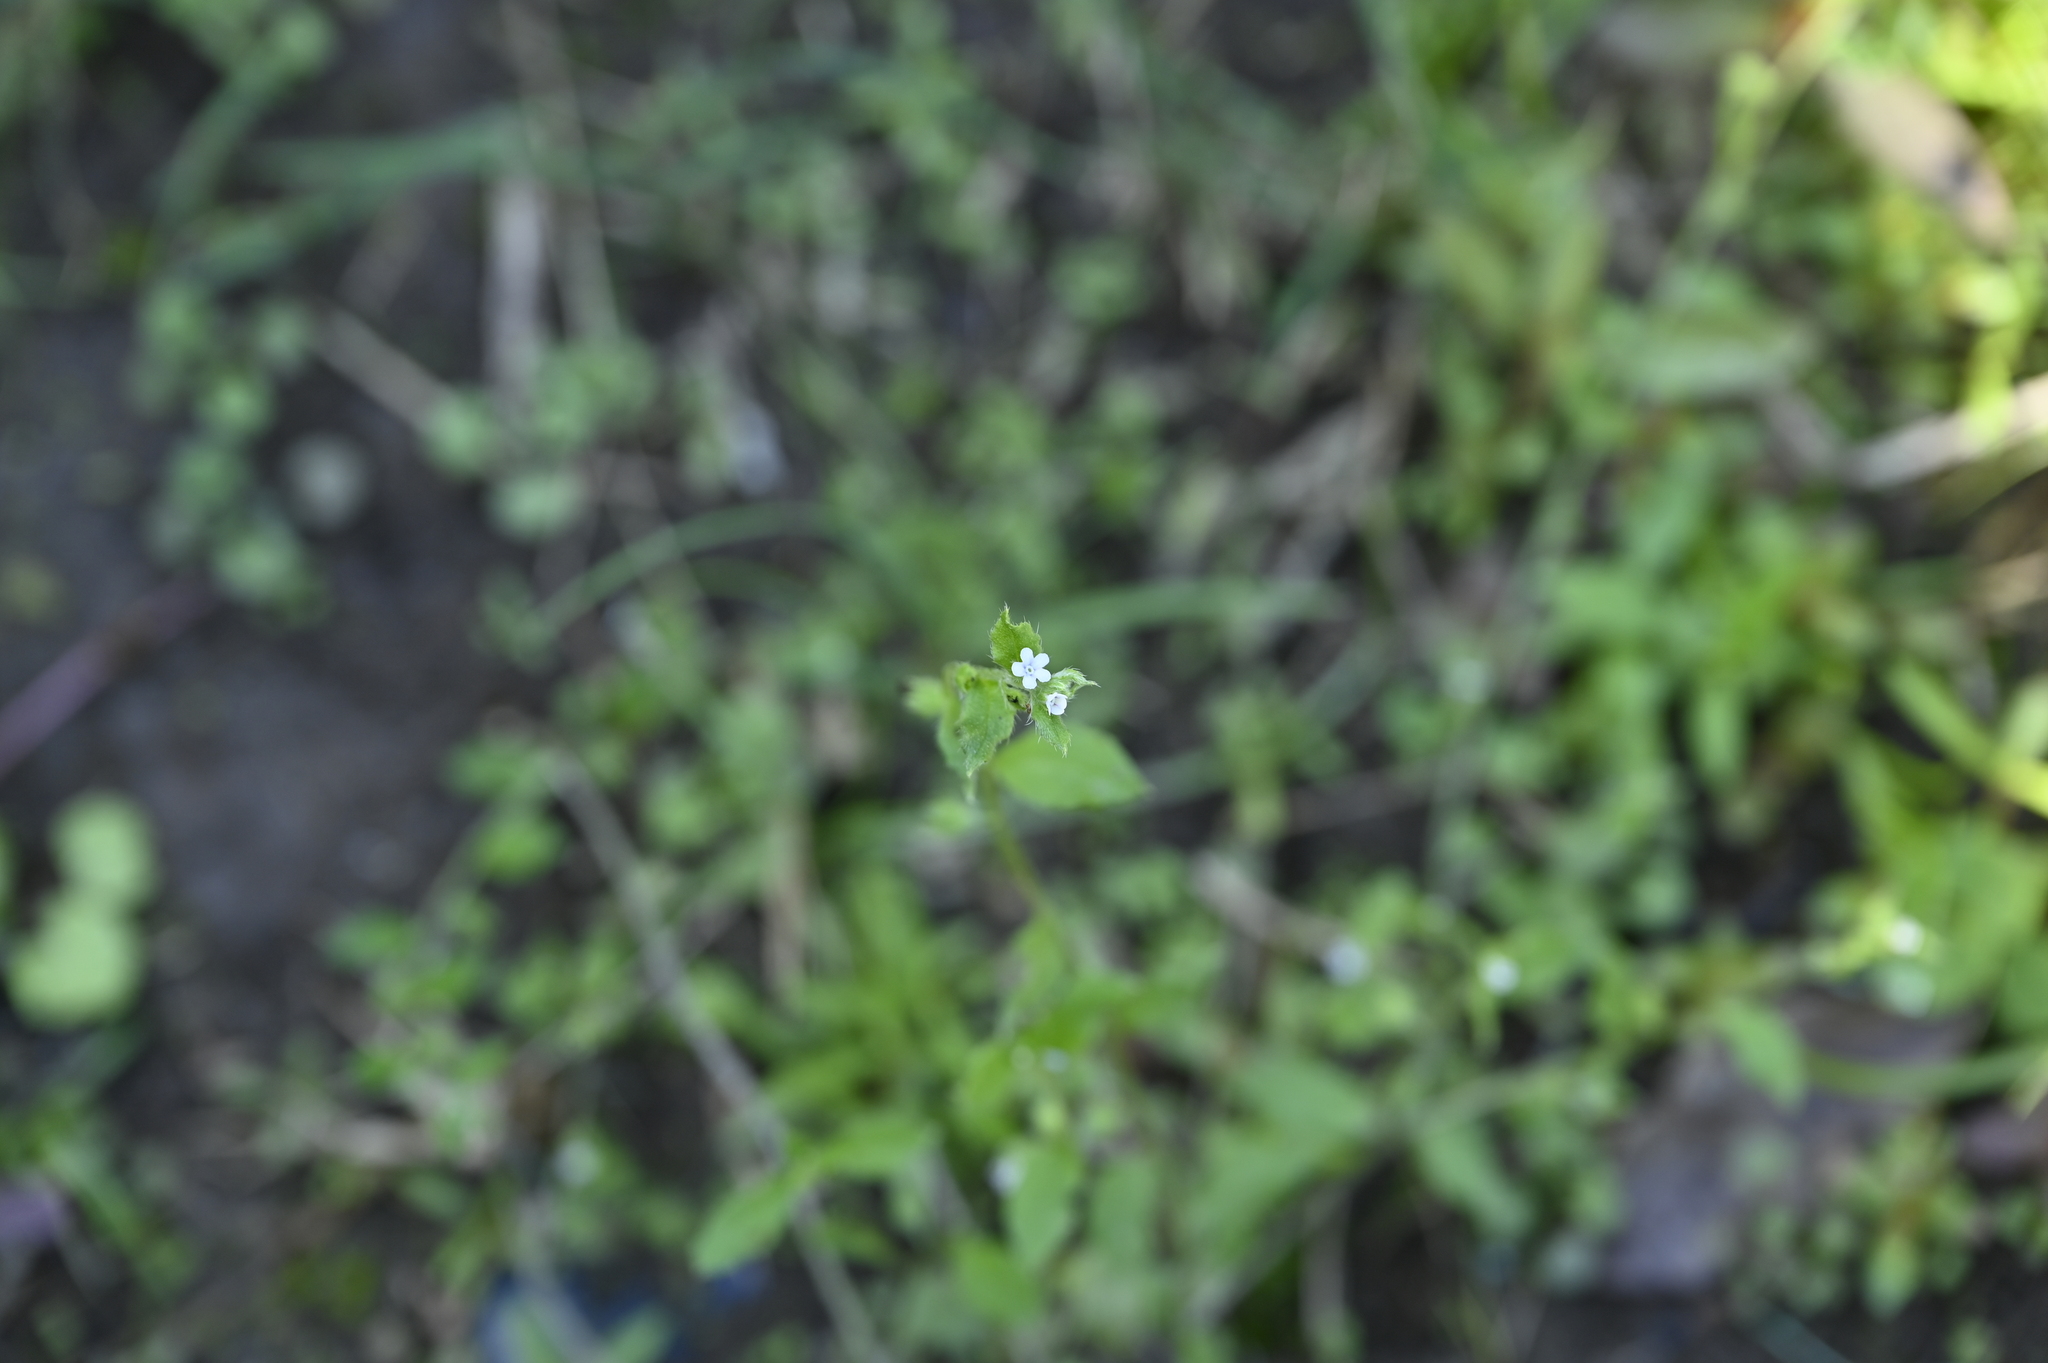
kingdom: Plantae
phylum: Tracheophyta
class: Magnoliopsida
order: Boraginales
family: Boraginaceae
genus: Bothriospermum
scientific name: Bothriospermum zeylanicum
